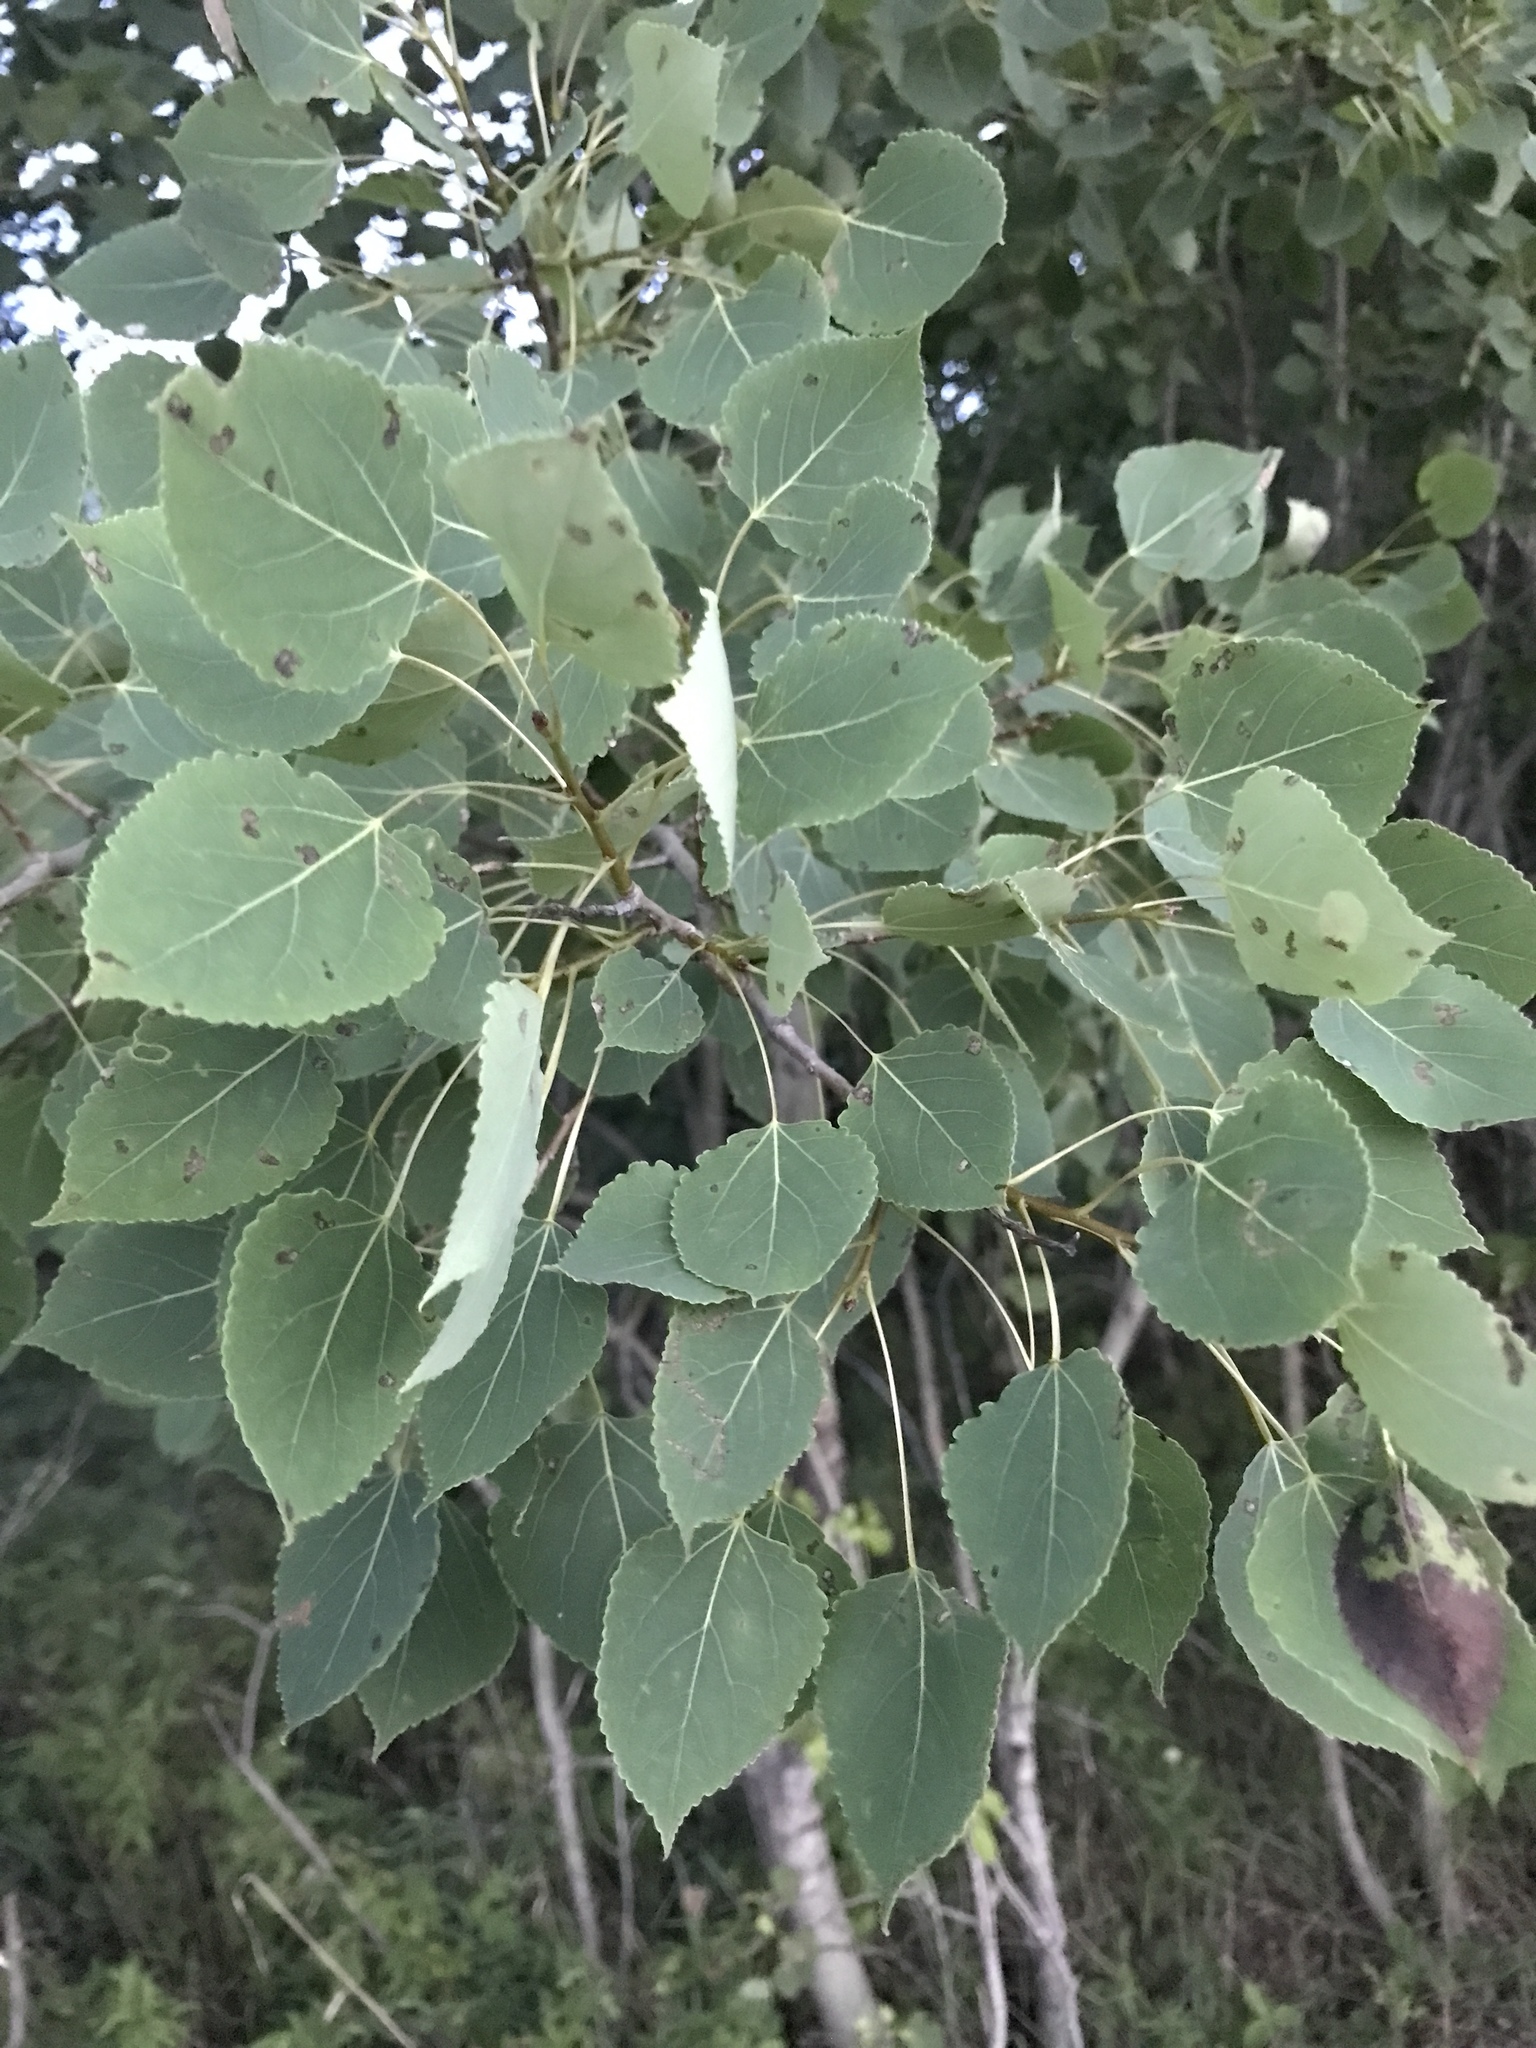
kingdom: Plantae
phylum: Tracheophyta
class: Magnoliopsida
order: Malpighiales
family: Salicaceae
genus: Populus
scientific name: Populus tremuloides
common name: Quaking aspen
